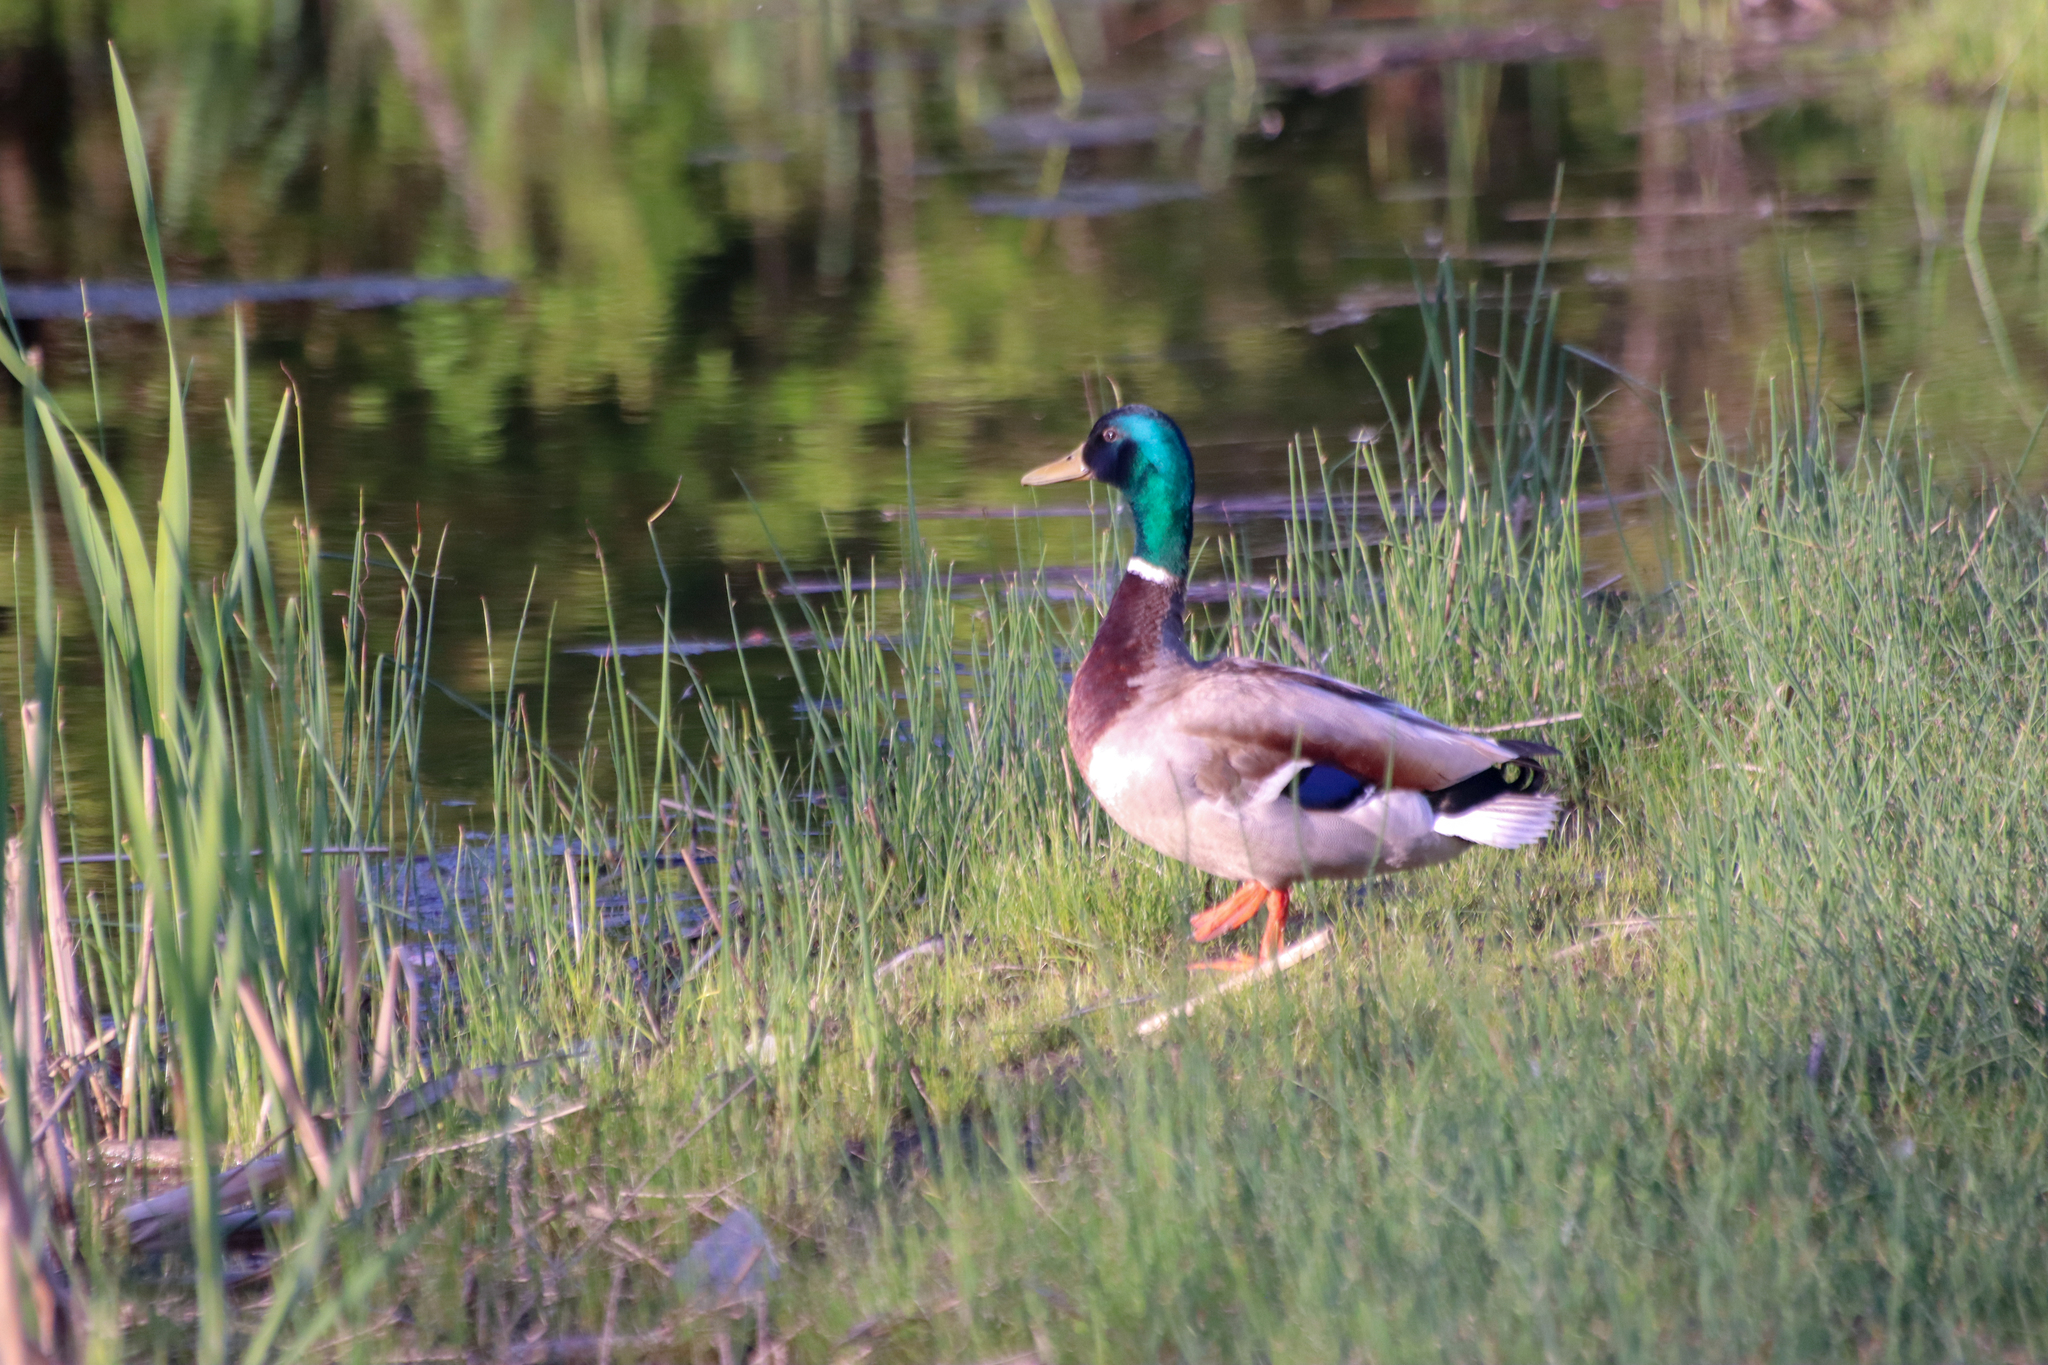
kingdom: Animalia
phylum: Chordata
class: Aves
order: Anseriformes
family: Anatidae
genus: Anas
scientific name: Anas platyrhynchos
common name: Mallard
